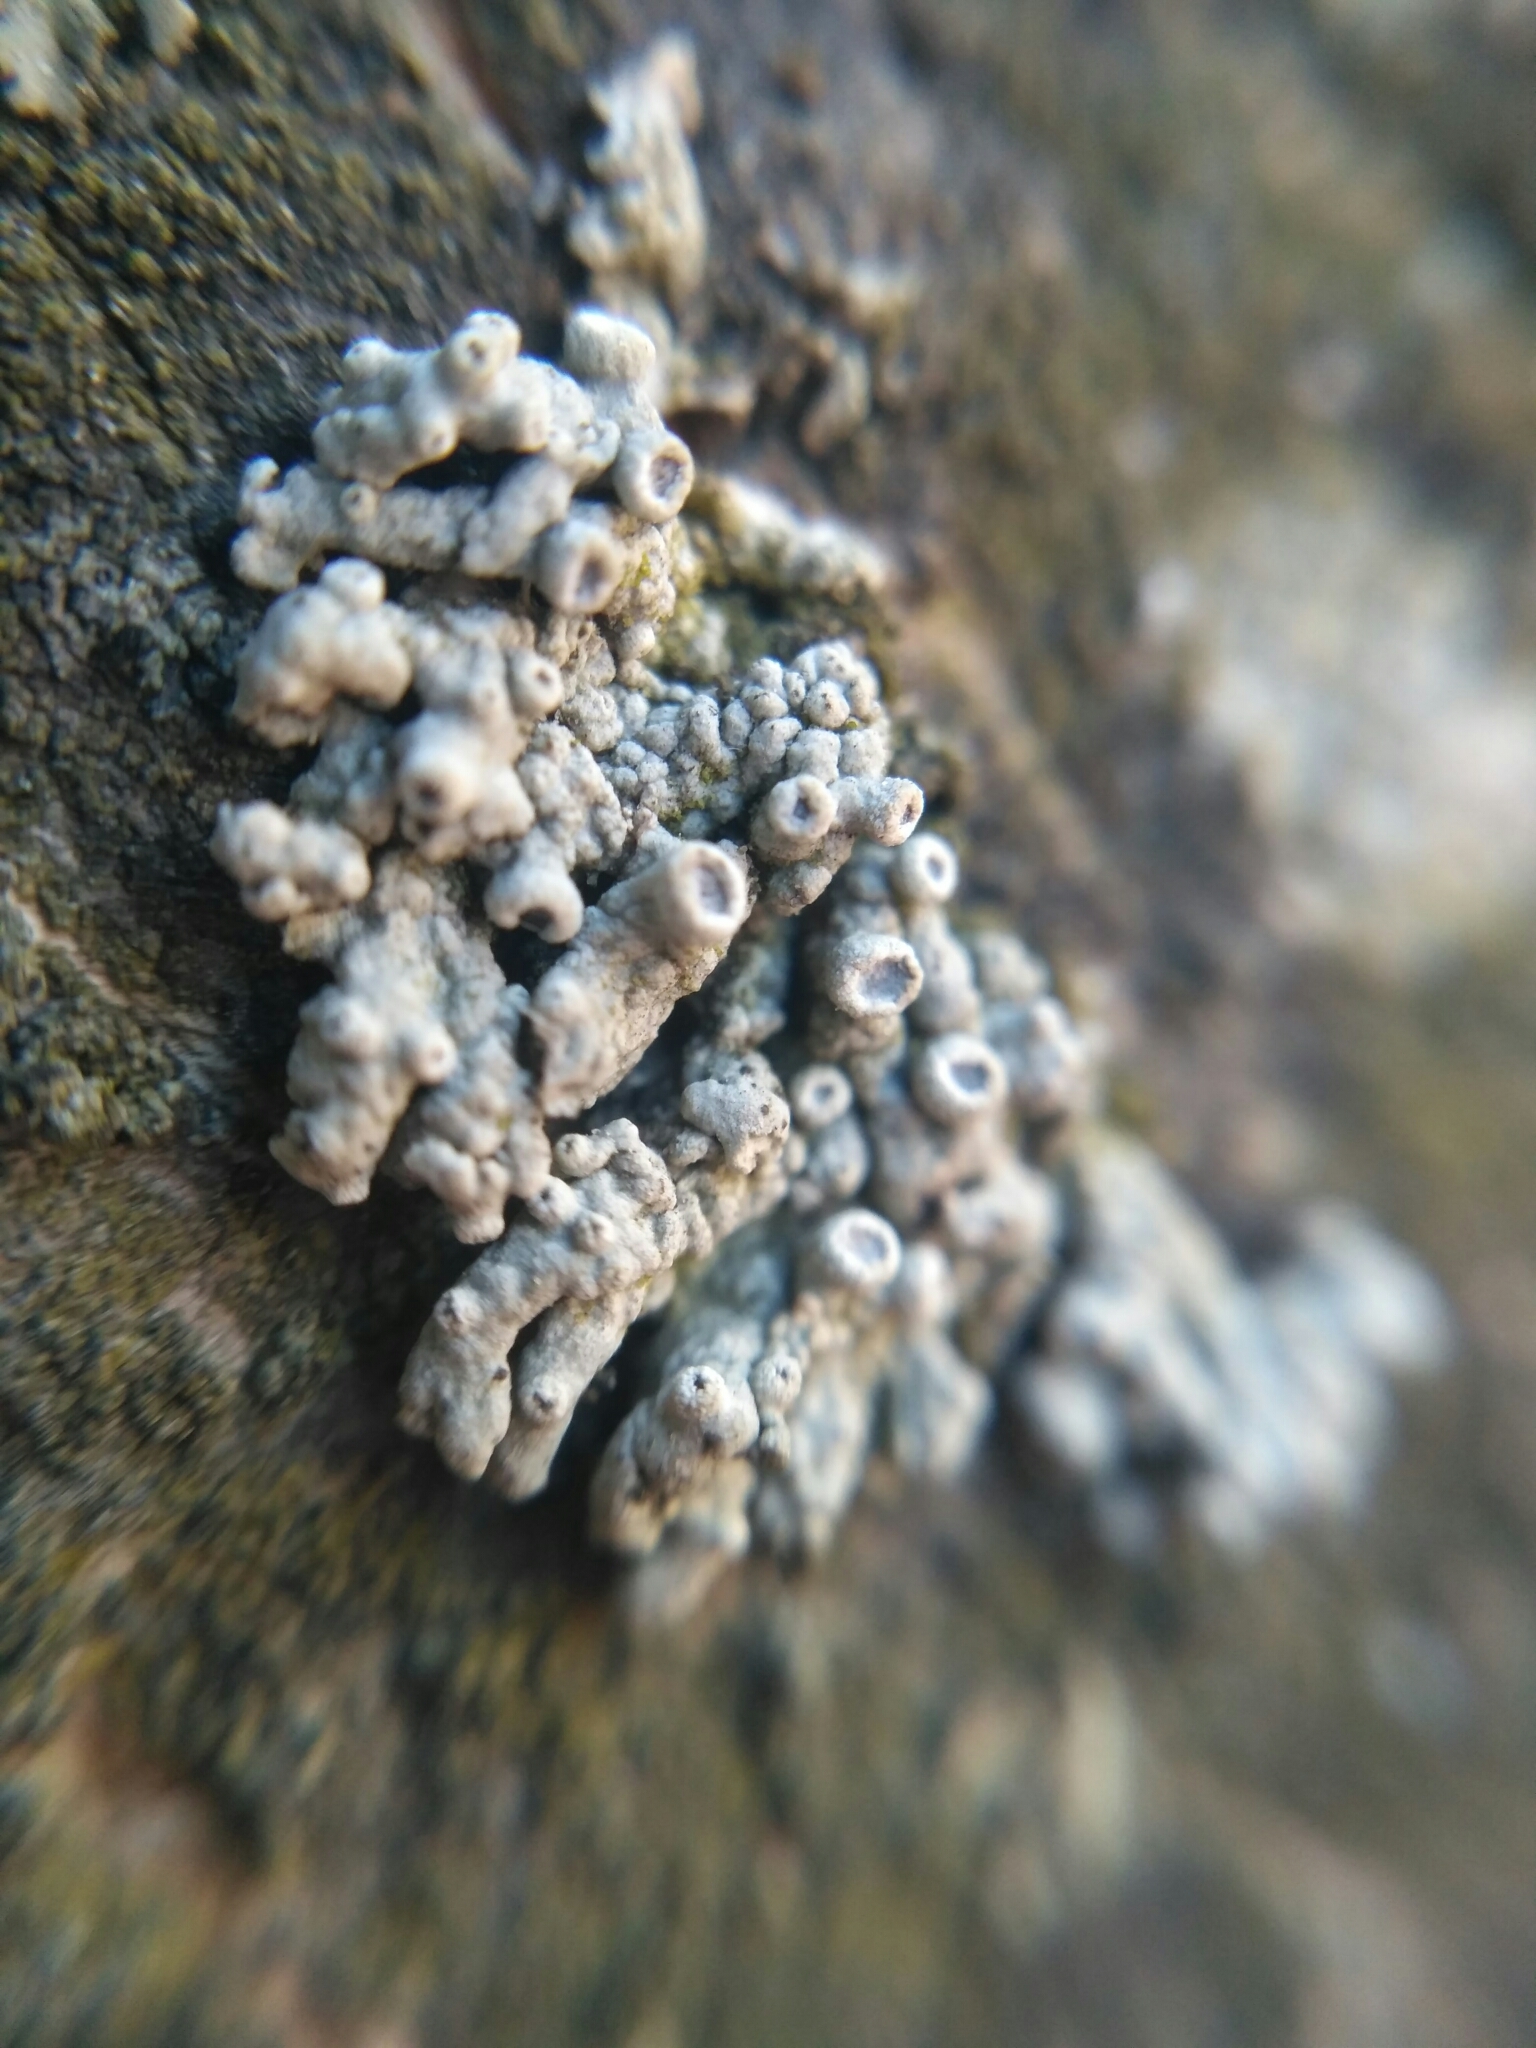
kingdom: Fungi
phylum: Ascomycota
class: Lecanoromycetes
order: Caliciales
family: Physciaceae
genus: Physcia
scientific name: Physcia stellaris
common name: Star rosette lichen
